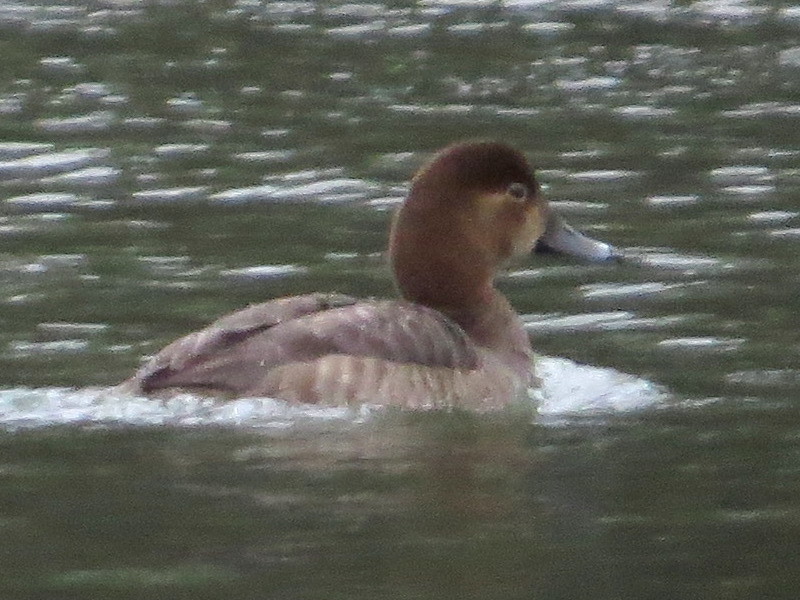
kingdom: Animalia
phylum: Chordata
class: Aves
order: Anseriformes
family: Anatidae
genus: Aythya
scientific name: Aythya americana
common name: Redhead
